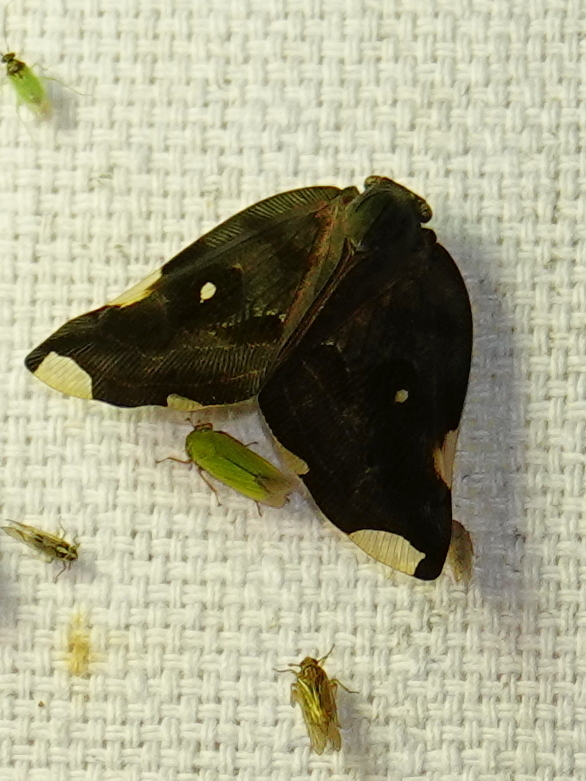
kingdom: Animalia
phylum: Arthropoda
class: Insecta
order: Hemiptera
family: Ricaniidae
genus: Pochazia
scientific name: Pochazia guttifera
